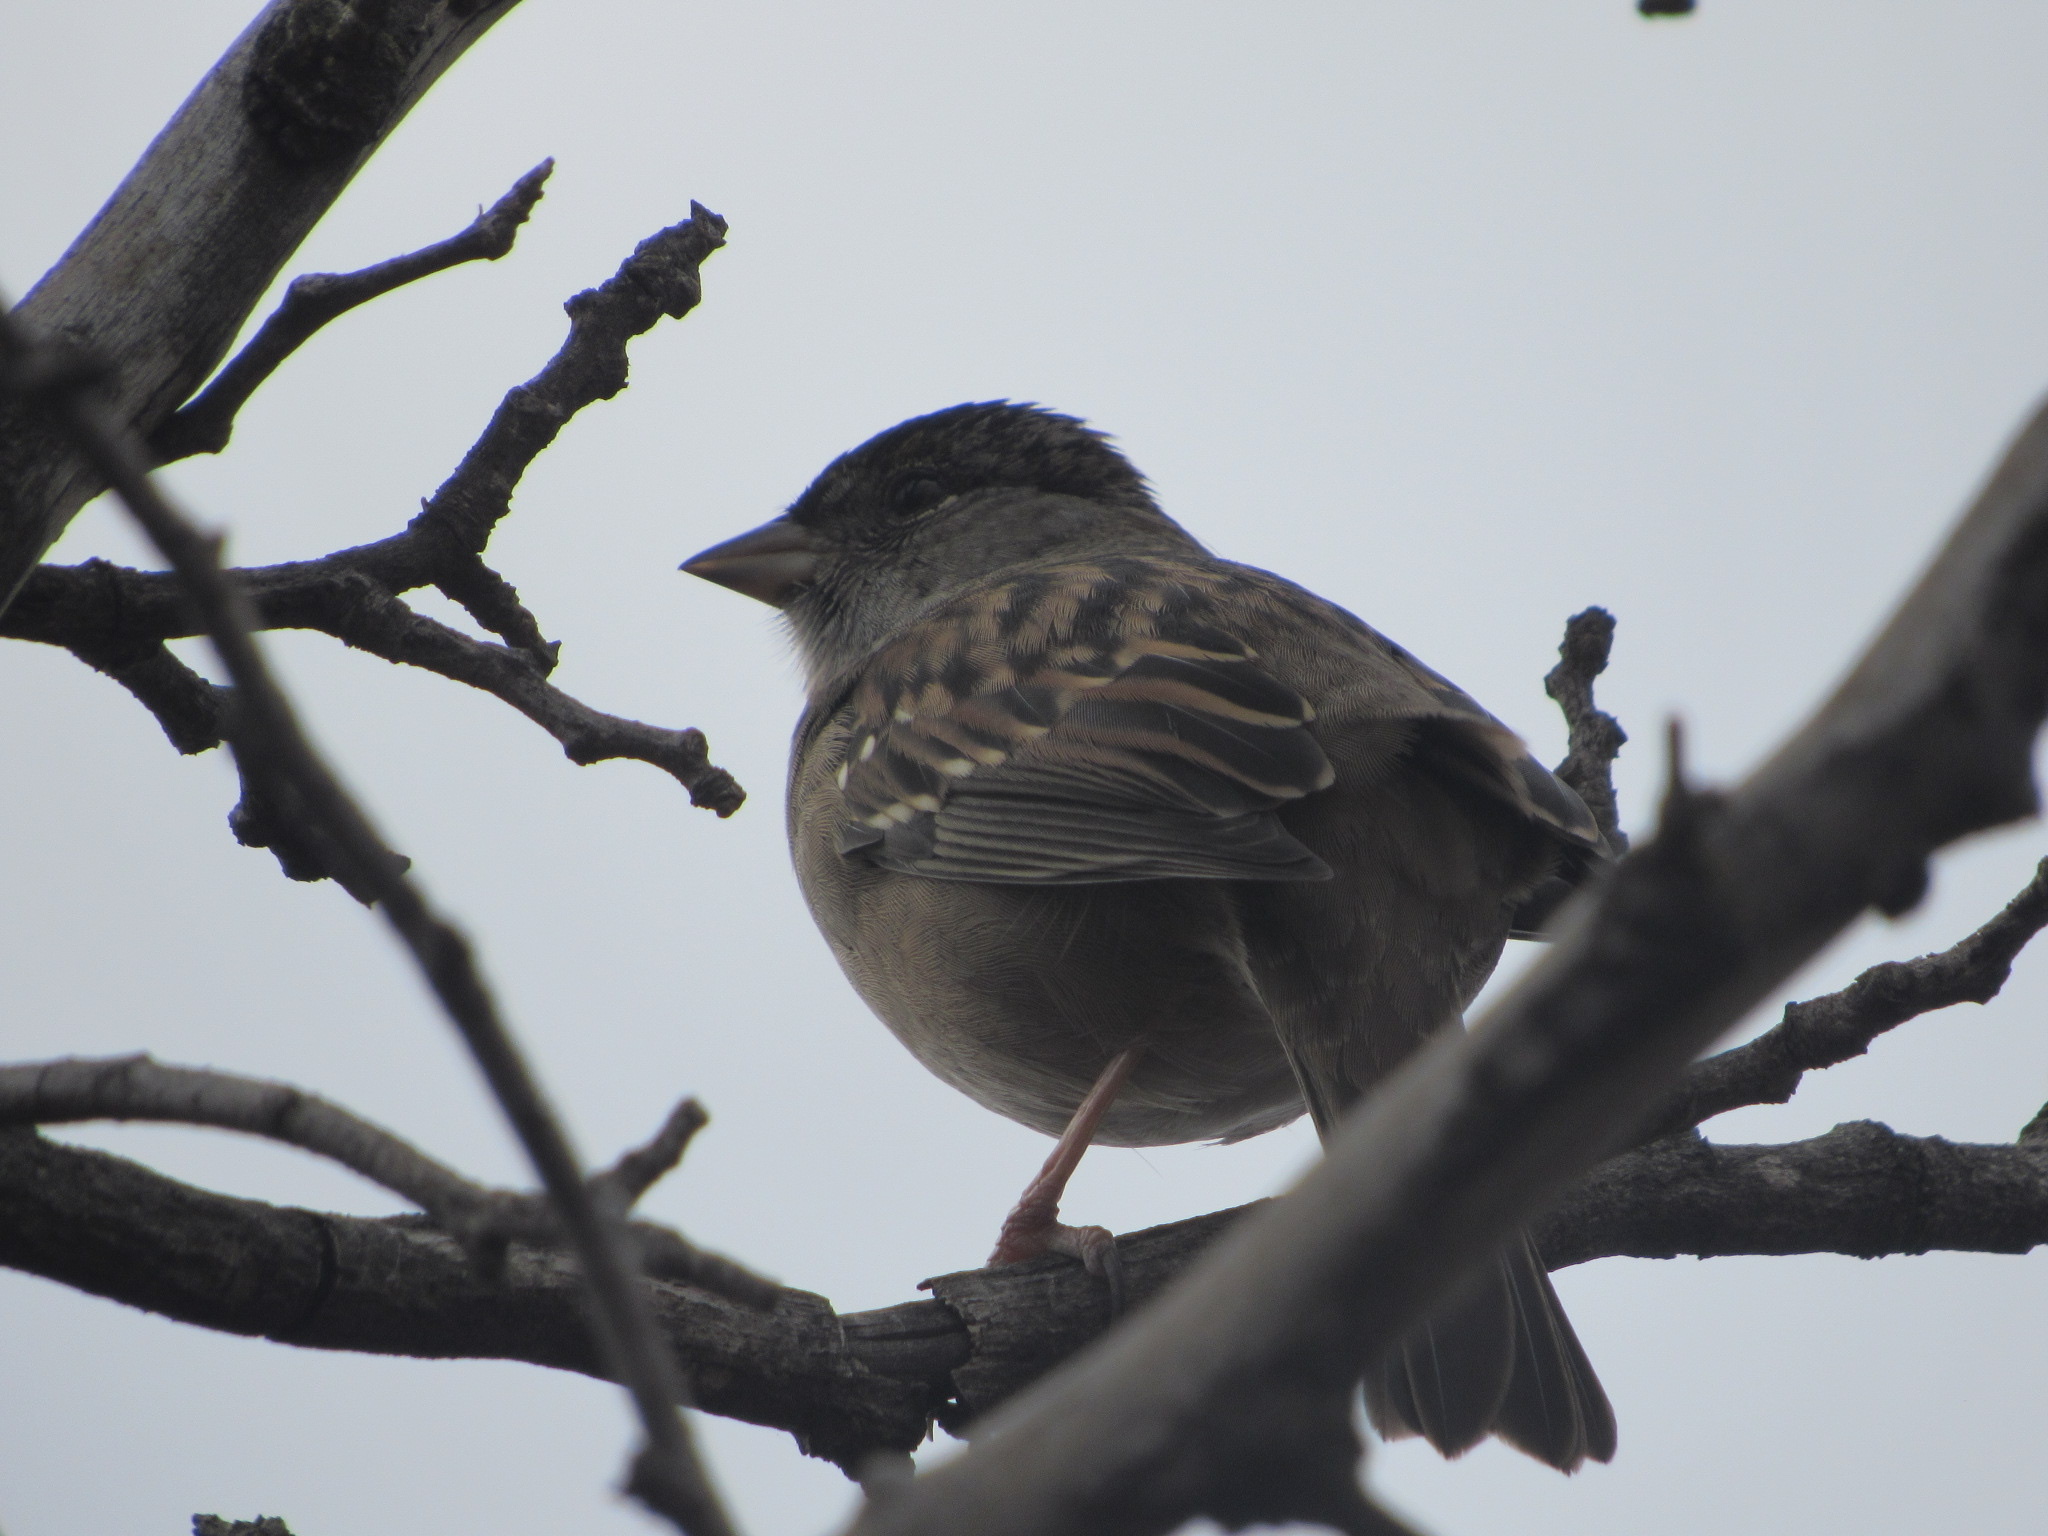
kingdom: Animalia
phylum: Chordata
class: Aves
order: Passeriformes
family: Passerellidae
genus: Zonotrichia
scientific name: Zonotrichia atricapilla
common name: Golden-crowned sparrow
